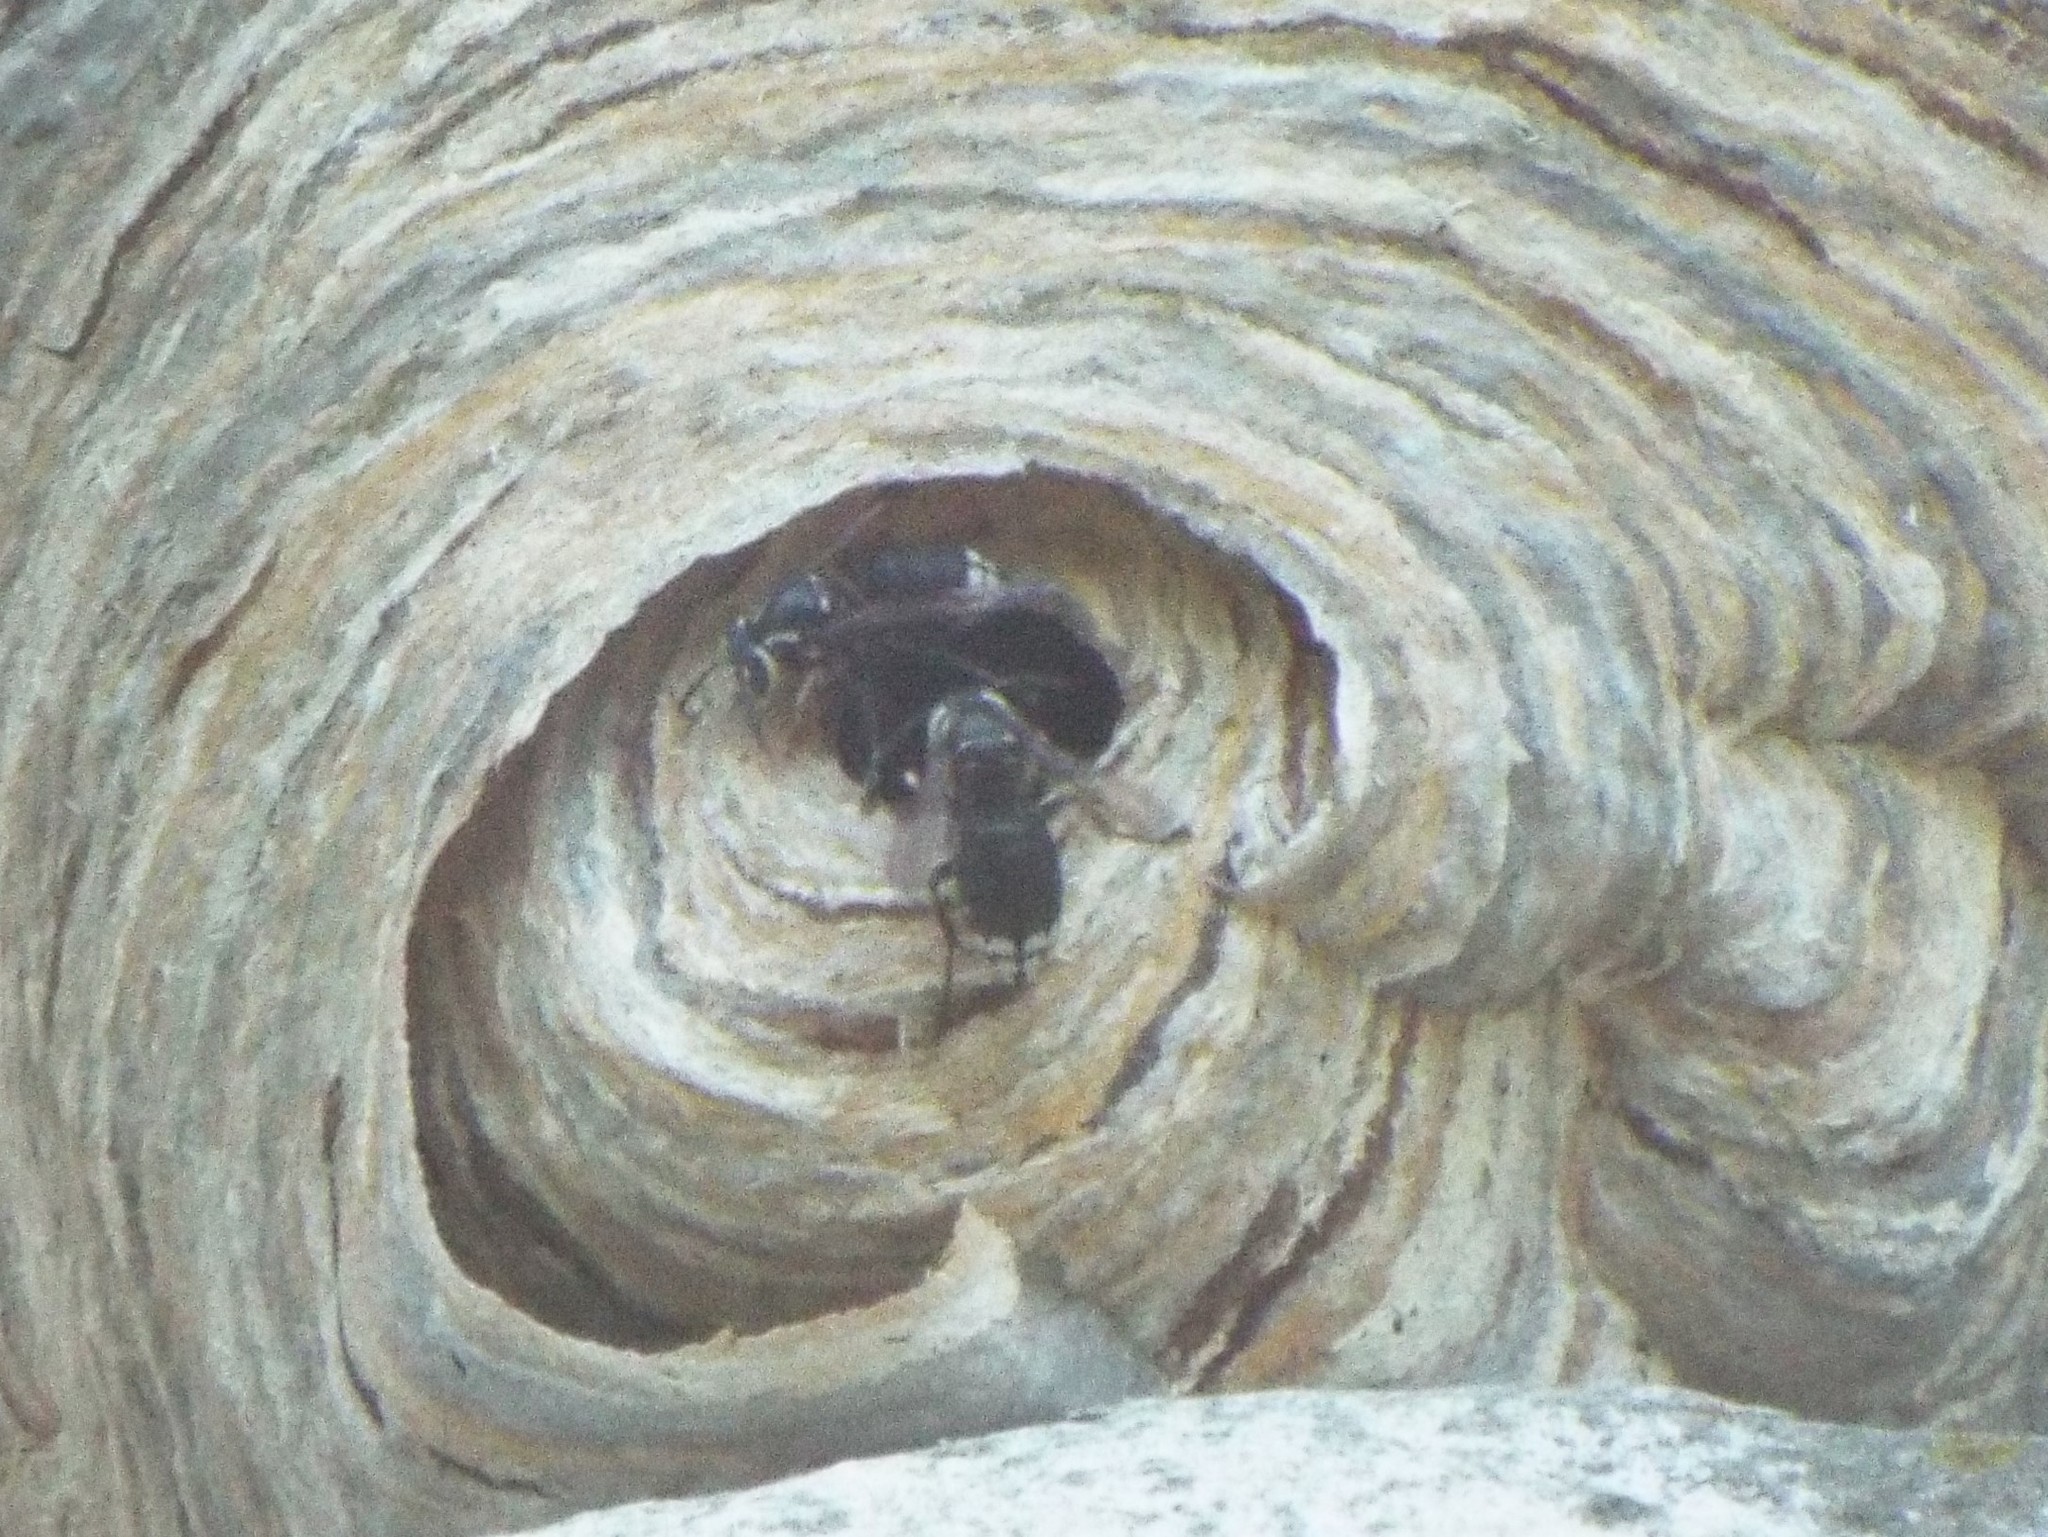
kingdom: Animalia
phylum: Arthropoda
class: Insecta
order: Hymenoptera
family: Vespidae
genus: Dolichovespula
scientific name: Dolichovespula maculata
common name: Bald-faced hornet
